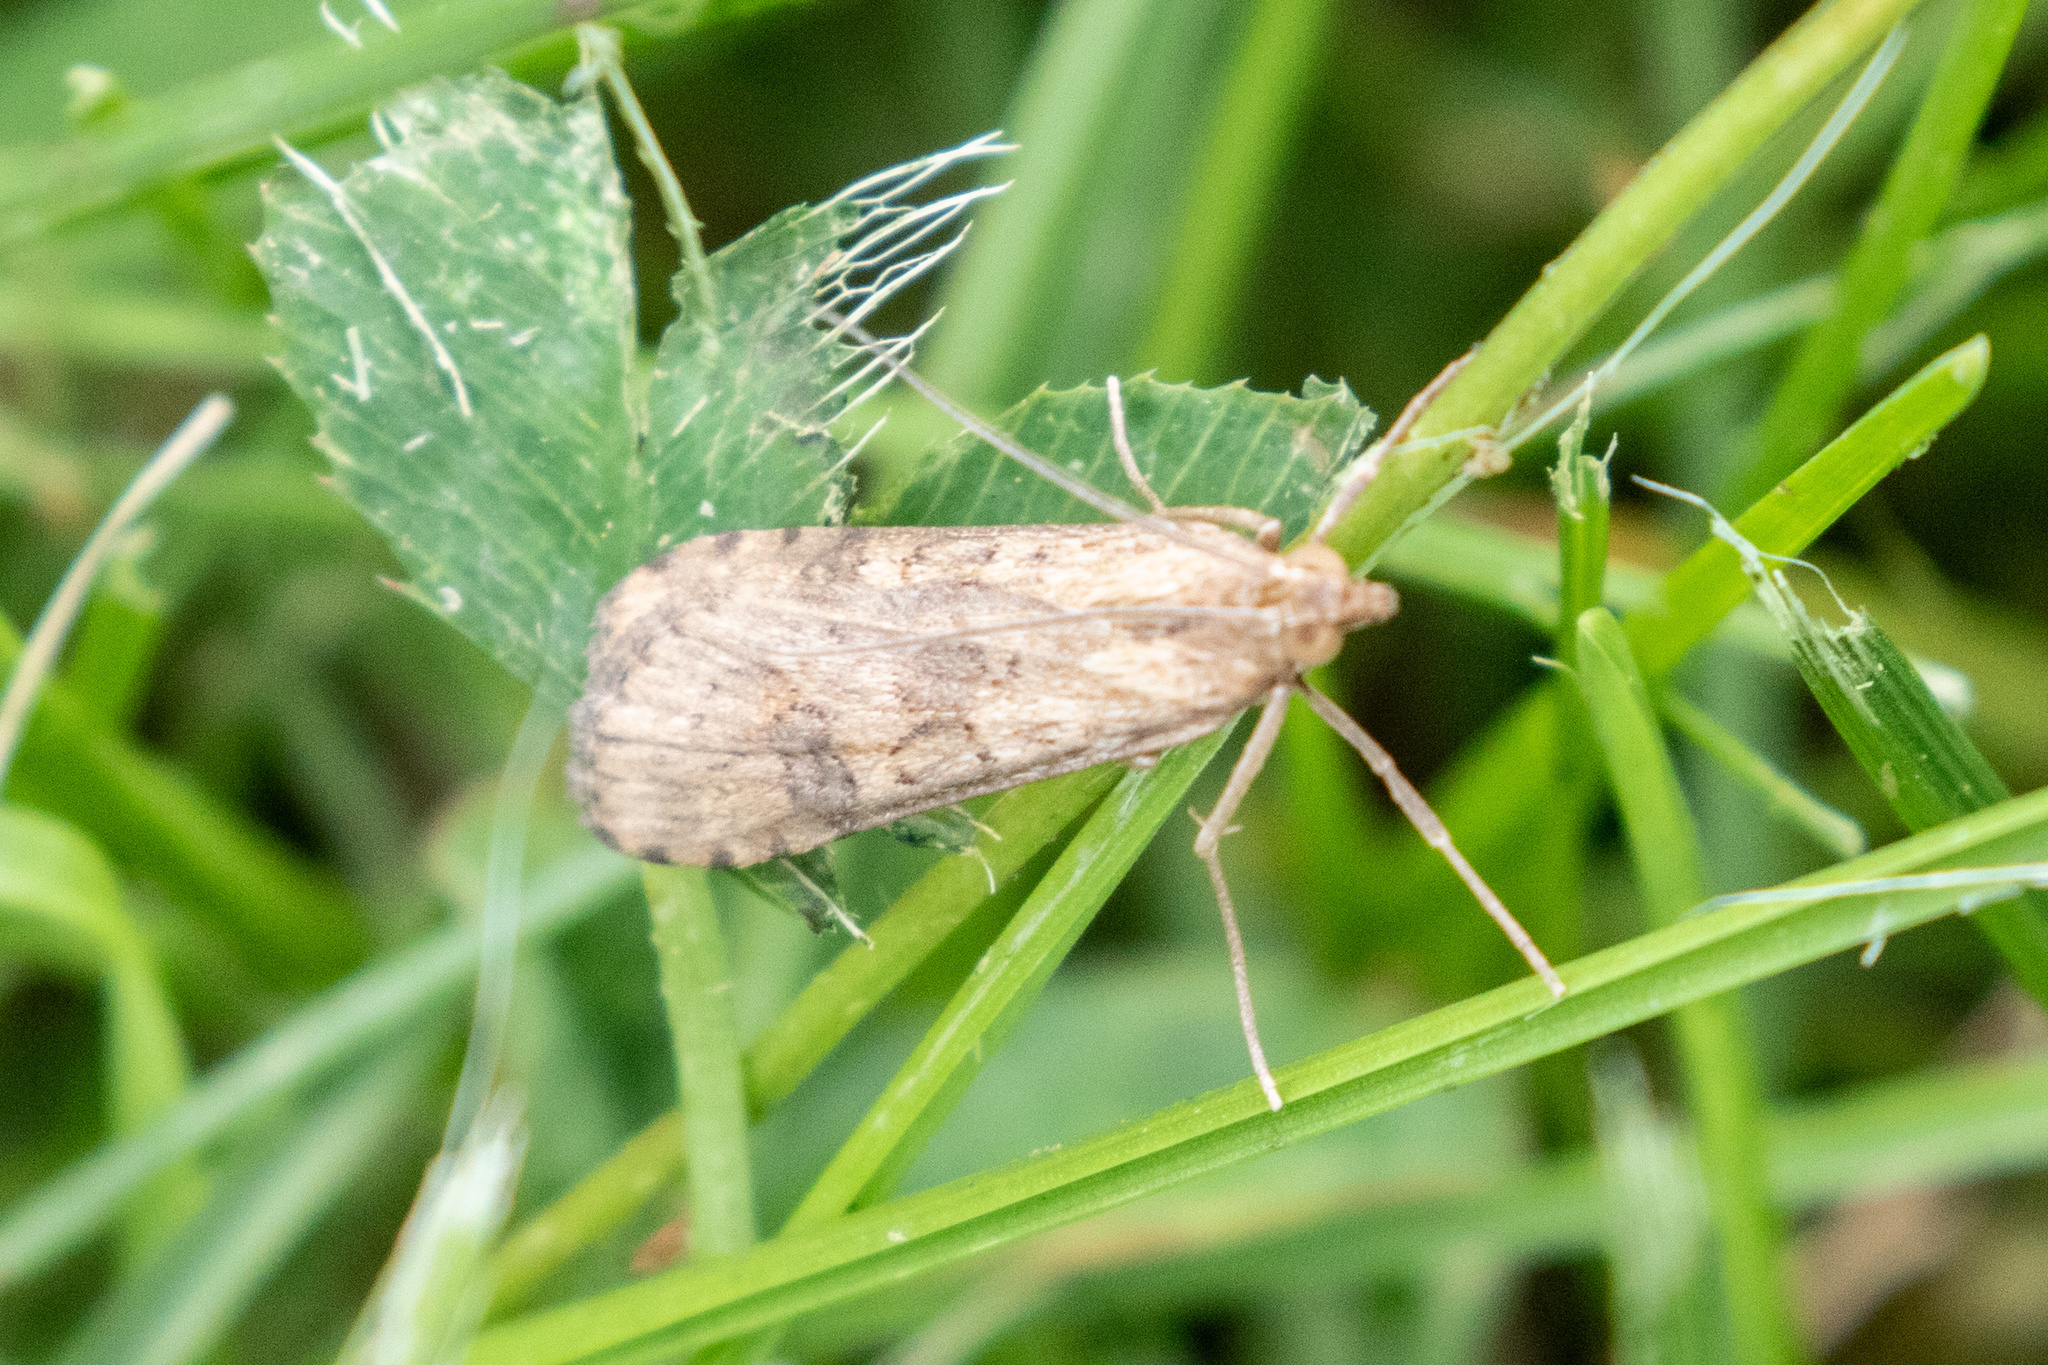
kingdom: Animalia
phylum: Arthropoda
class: Insecta
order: Lepidoptera
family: Crambidae
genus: Nomophila
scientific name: Nomophila nearctica
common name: American rush veneer
